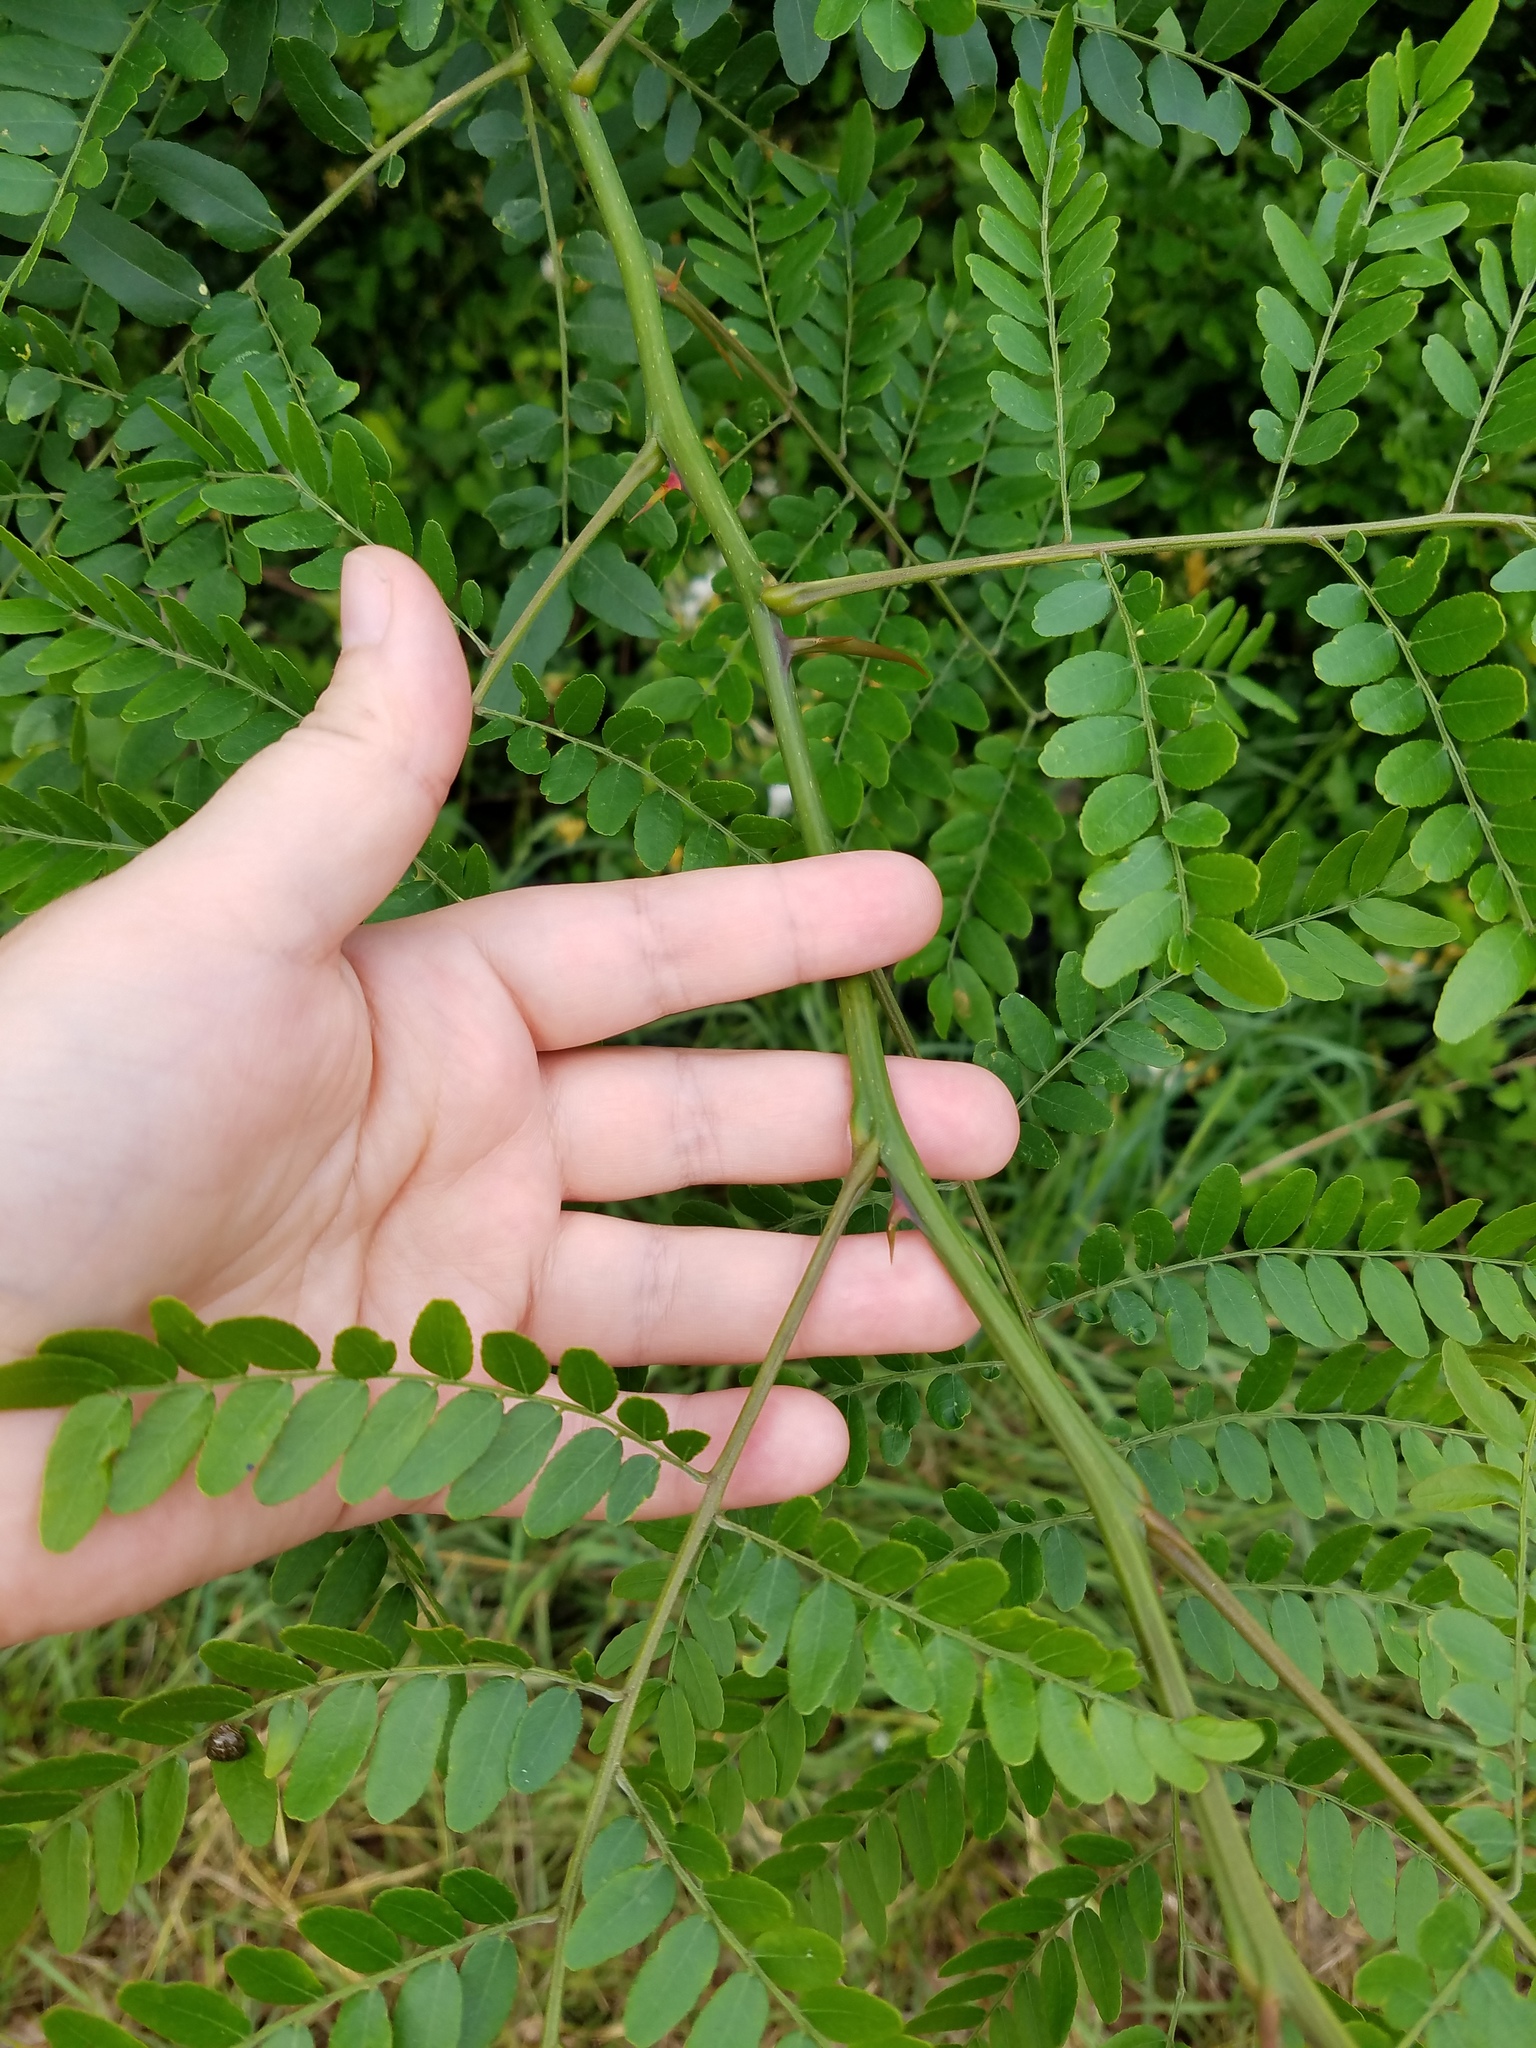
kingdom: Plantae
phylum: Tracheophyta
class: Magnoliopsida
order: Fabales
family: Fabaceae
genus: Gleditsia
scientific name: Gleditsia triacanthos
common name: Common honeylocust
